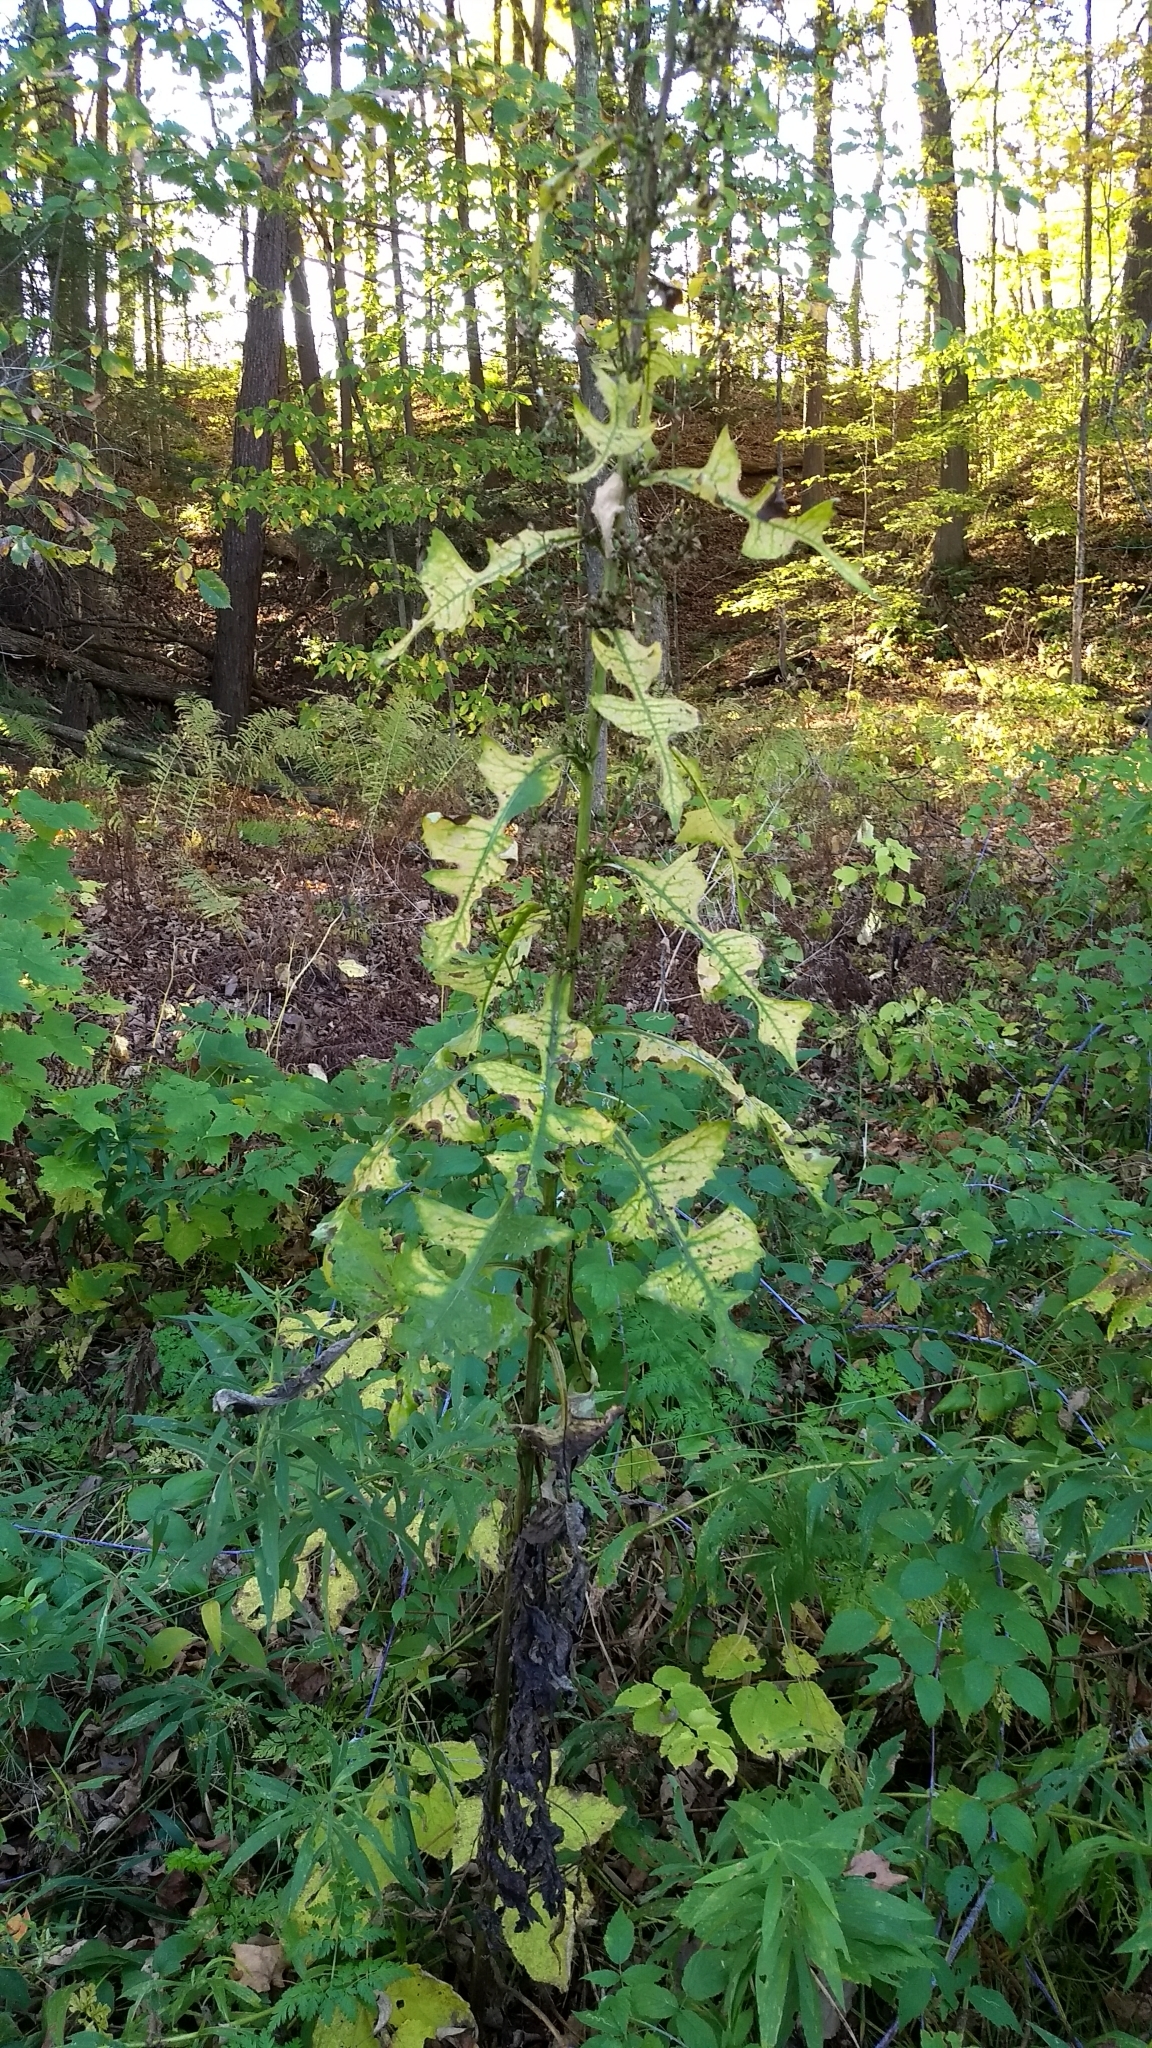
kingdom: Plantae
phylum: Tracheophyta
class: Magnoliopsida
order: Asterales
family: Asteraceae
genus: Lactuca
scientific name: Lactuca biennis
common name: Blue wood lettuce
